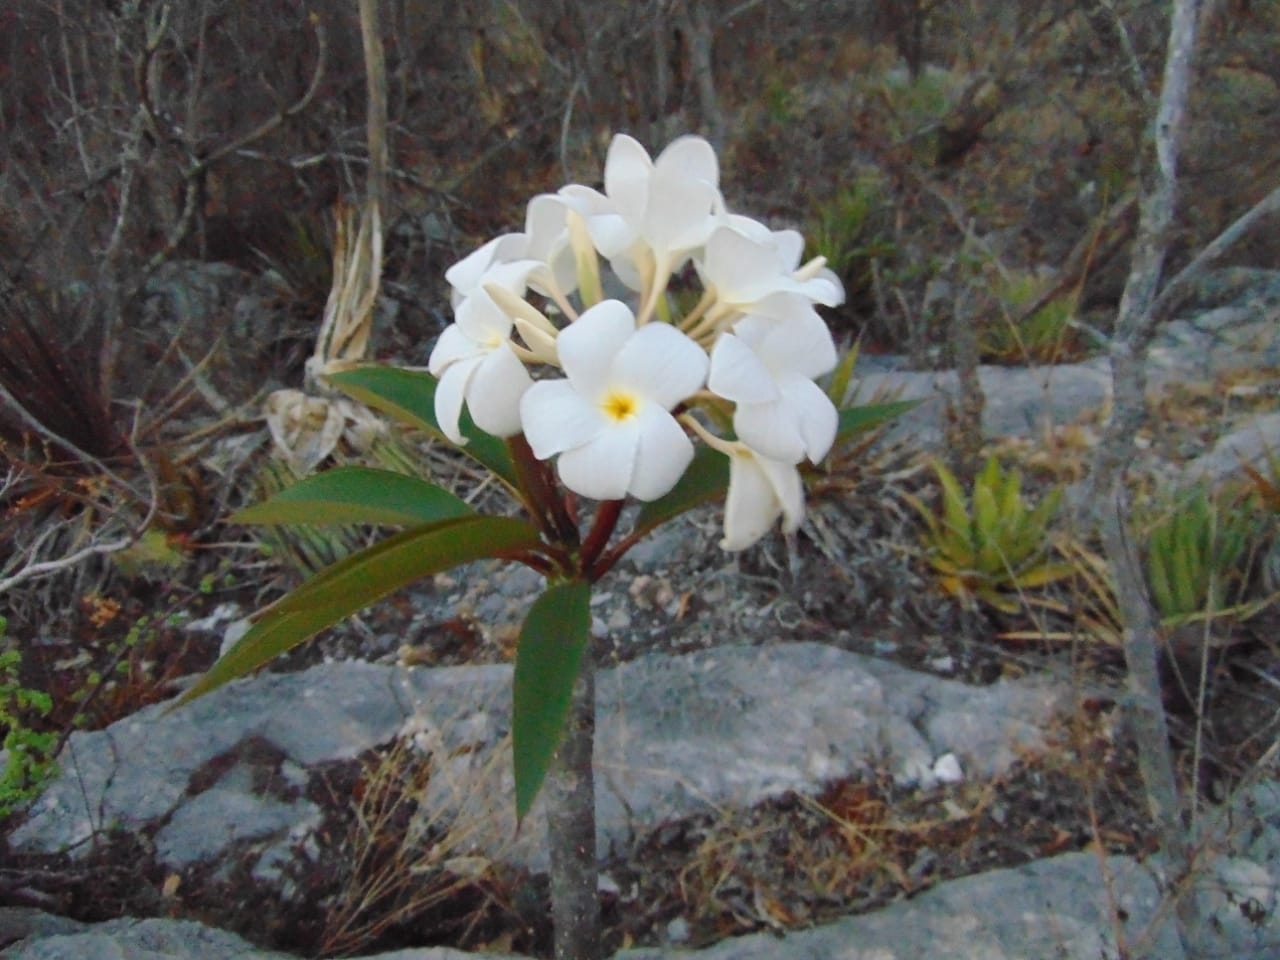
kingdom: Plantae
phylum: Tracheophyta
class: Magnoliopsida
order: Gentianales
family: Apocynaceae
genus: Plumeria
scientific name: Plumeria rubra
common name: Pagoda-tree
